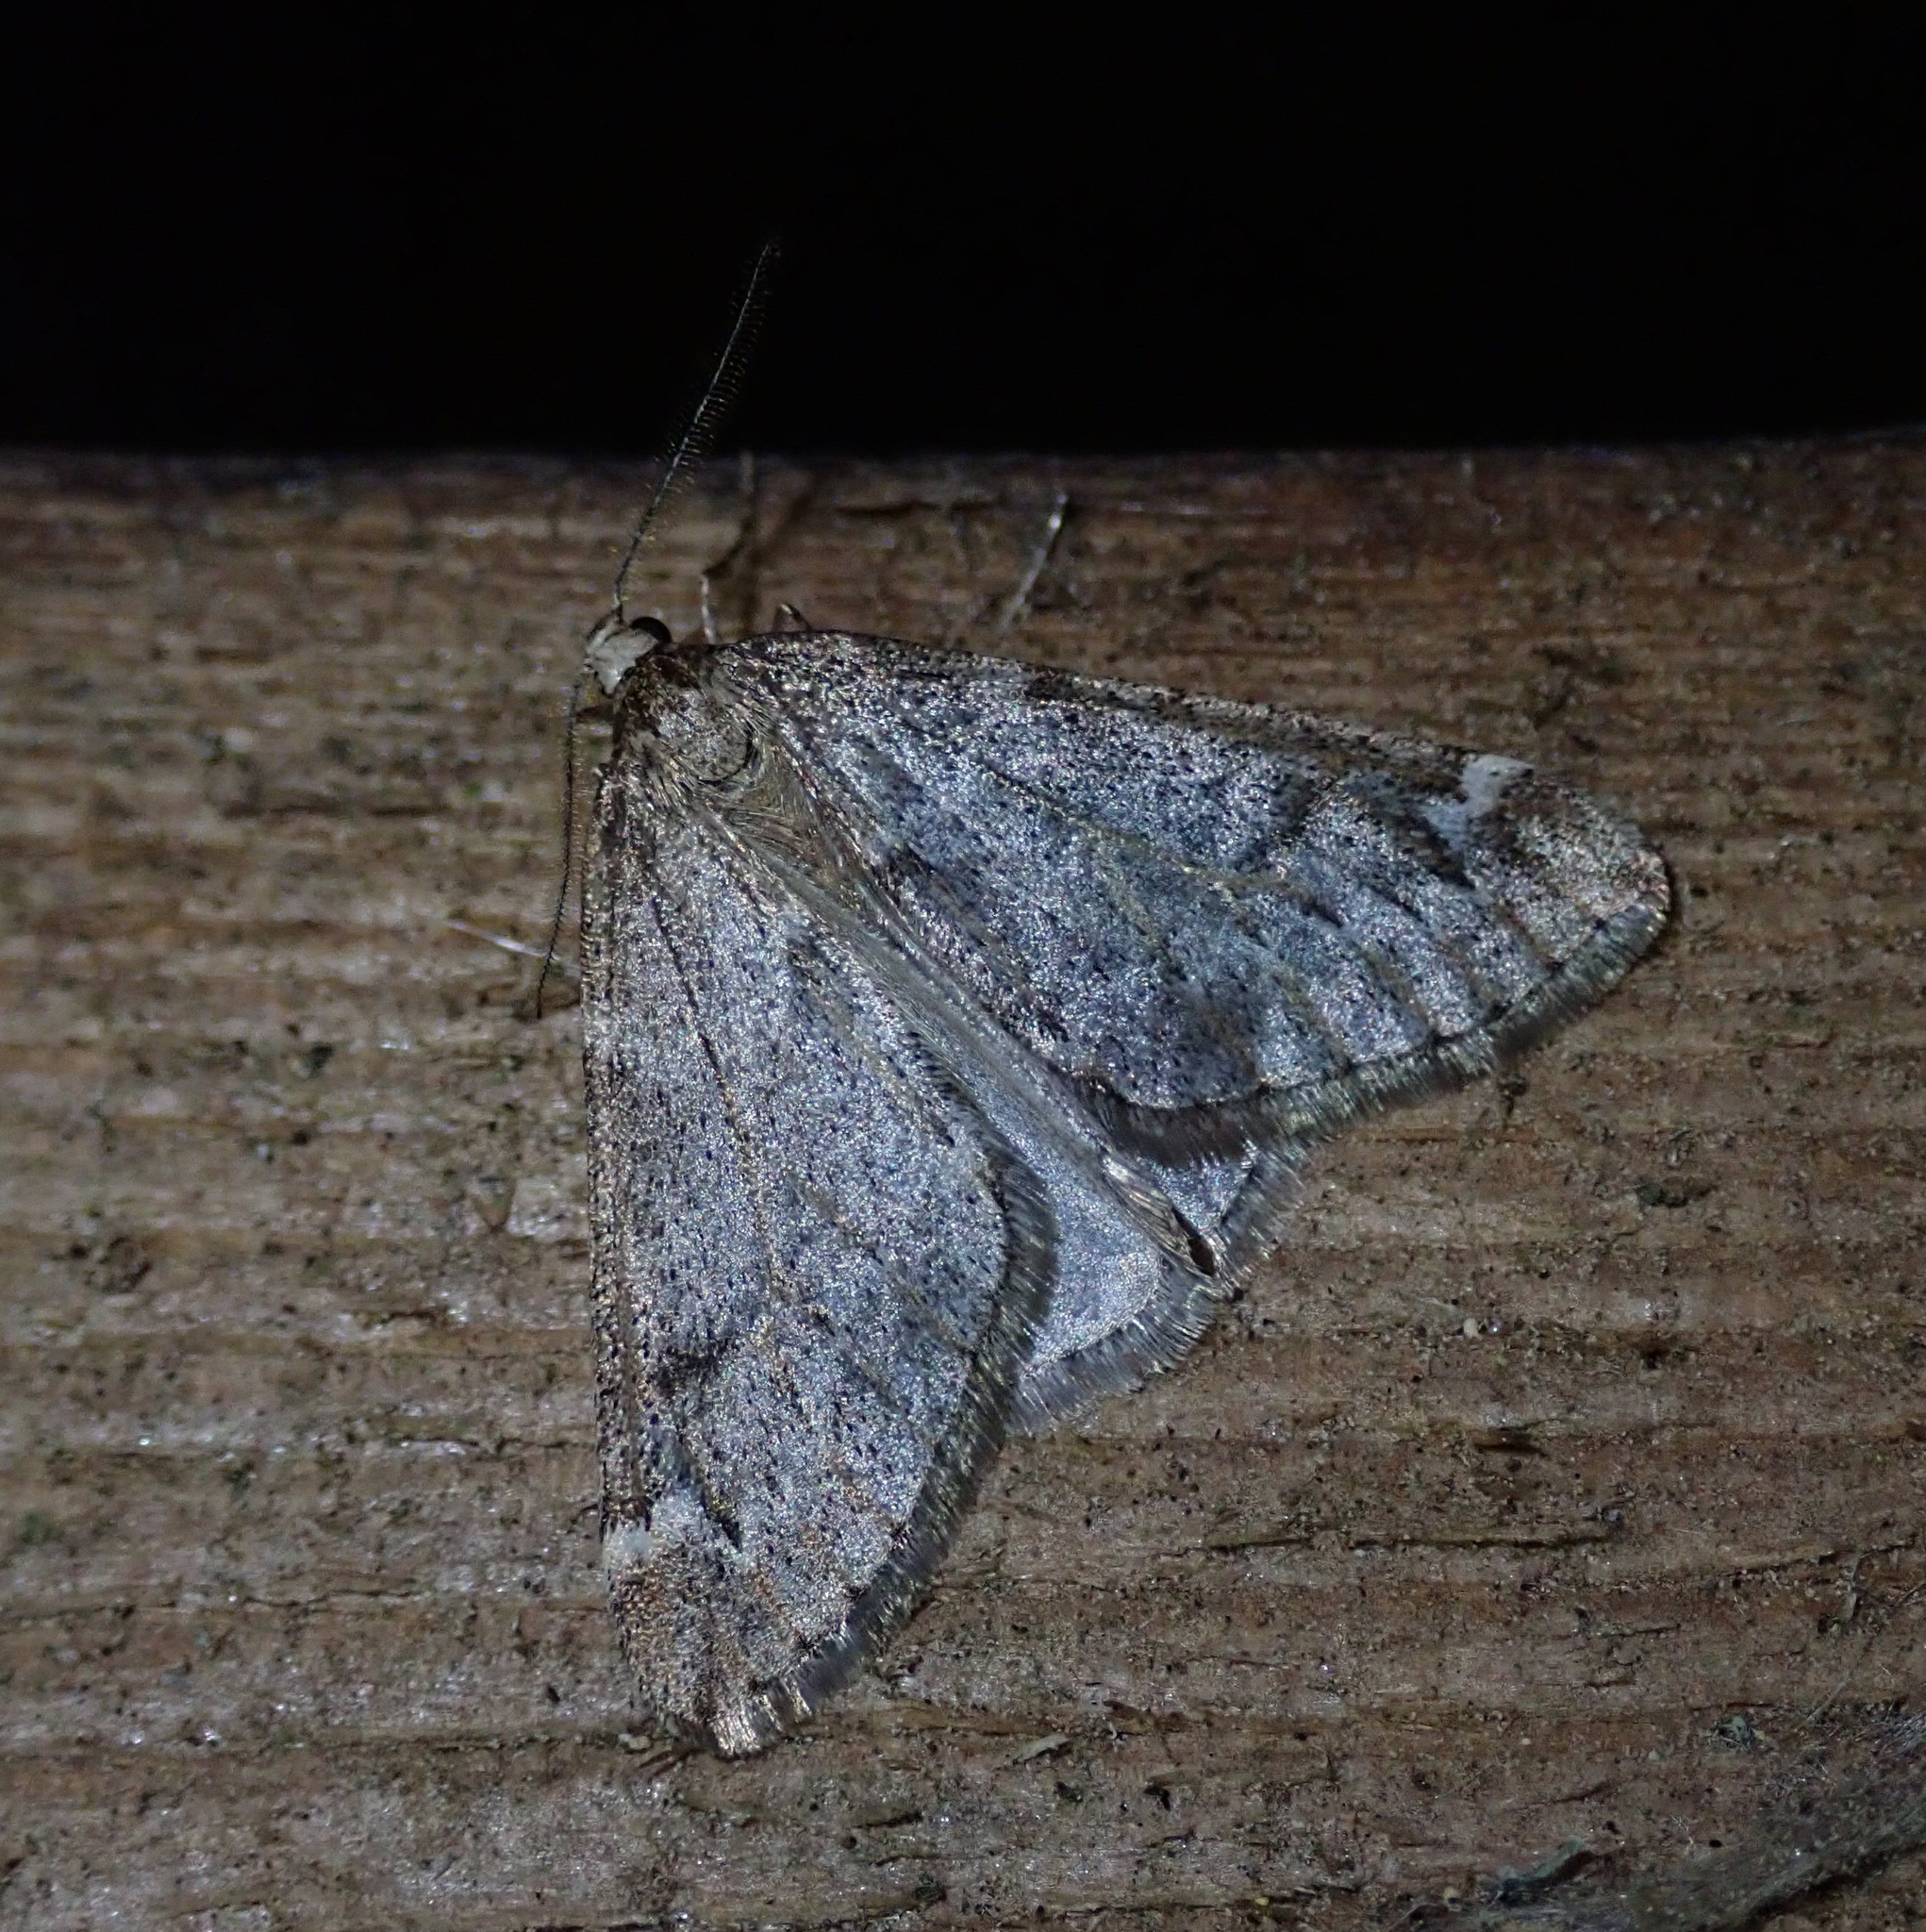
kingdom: Animalia
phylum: Arthropoda
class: Insecta
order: Lepidoptera
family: Geometridae
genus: Alsophila
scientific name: Alsophila aescularia
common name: March moth
